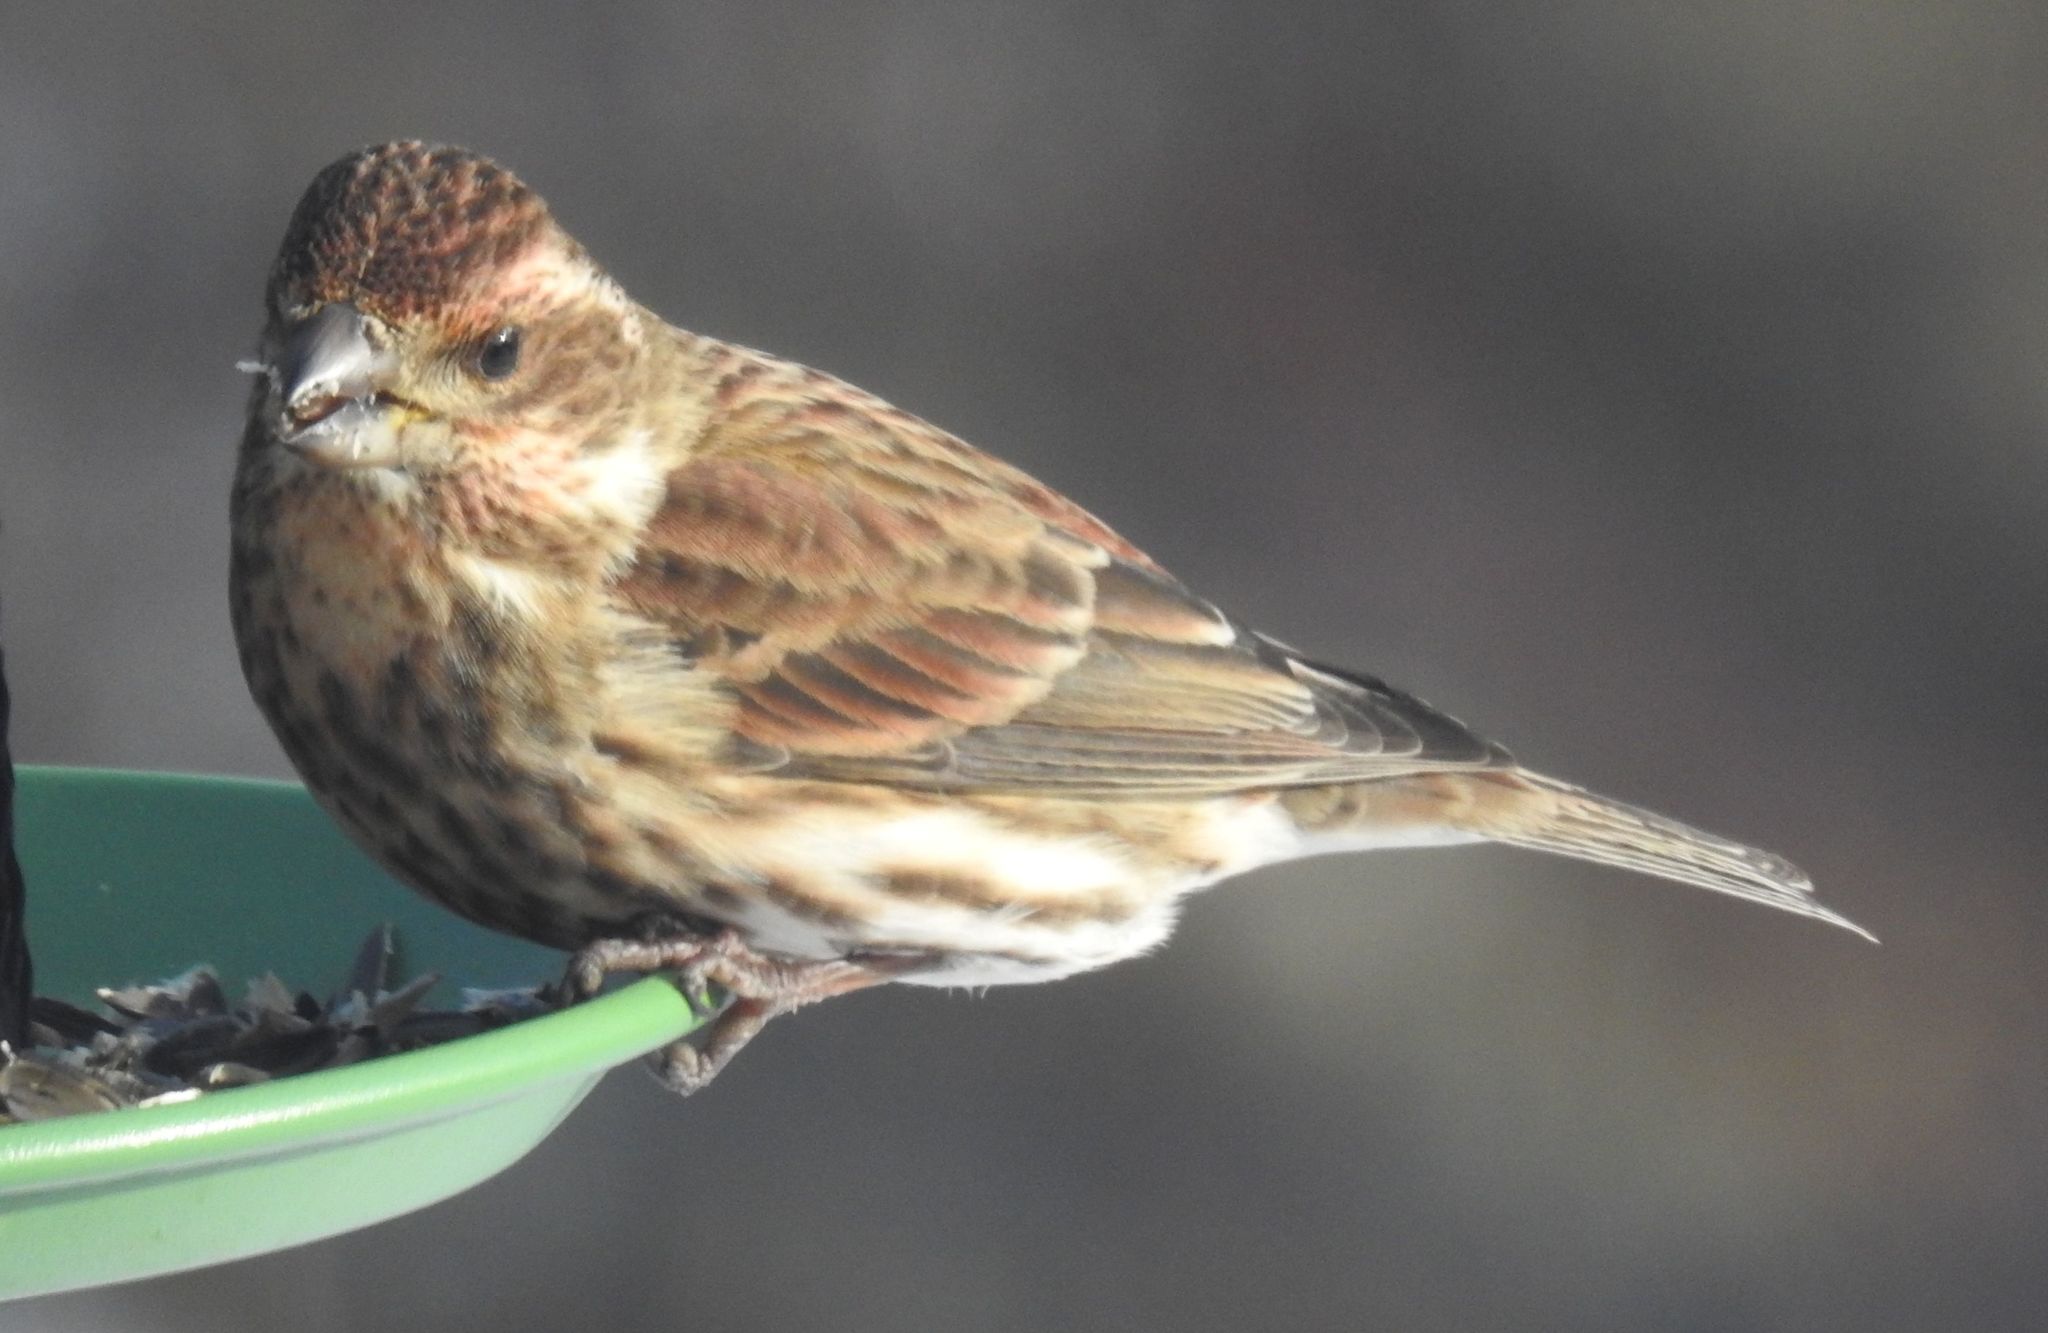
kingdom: Animalia
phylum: Chordata
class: Aves
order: Passeriformes
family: Fringillidae
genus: Haemorhous
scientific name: Haemorhous purpureus
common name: Purple finch
